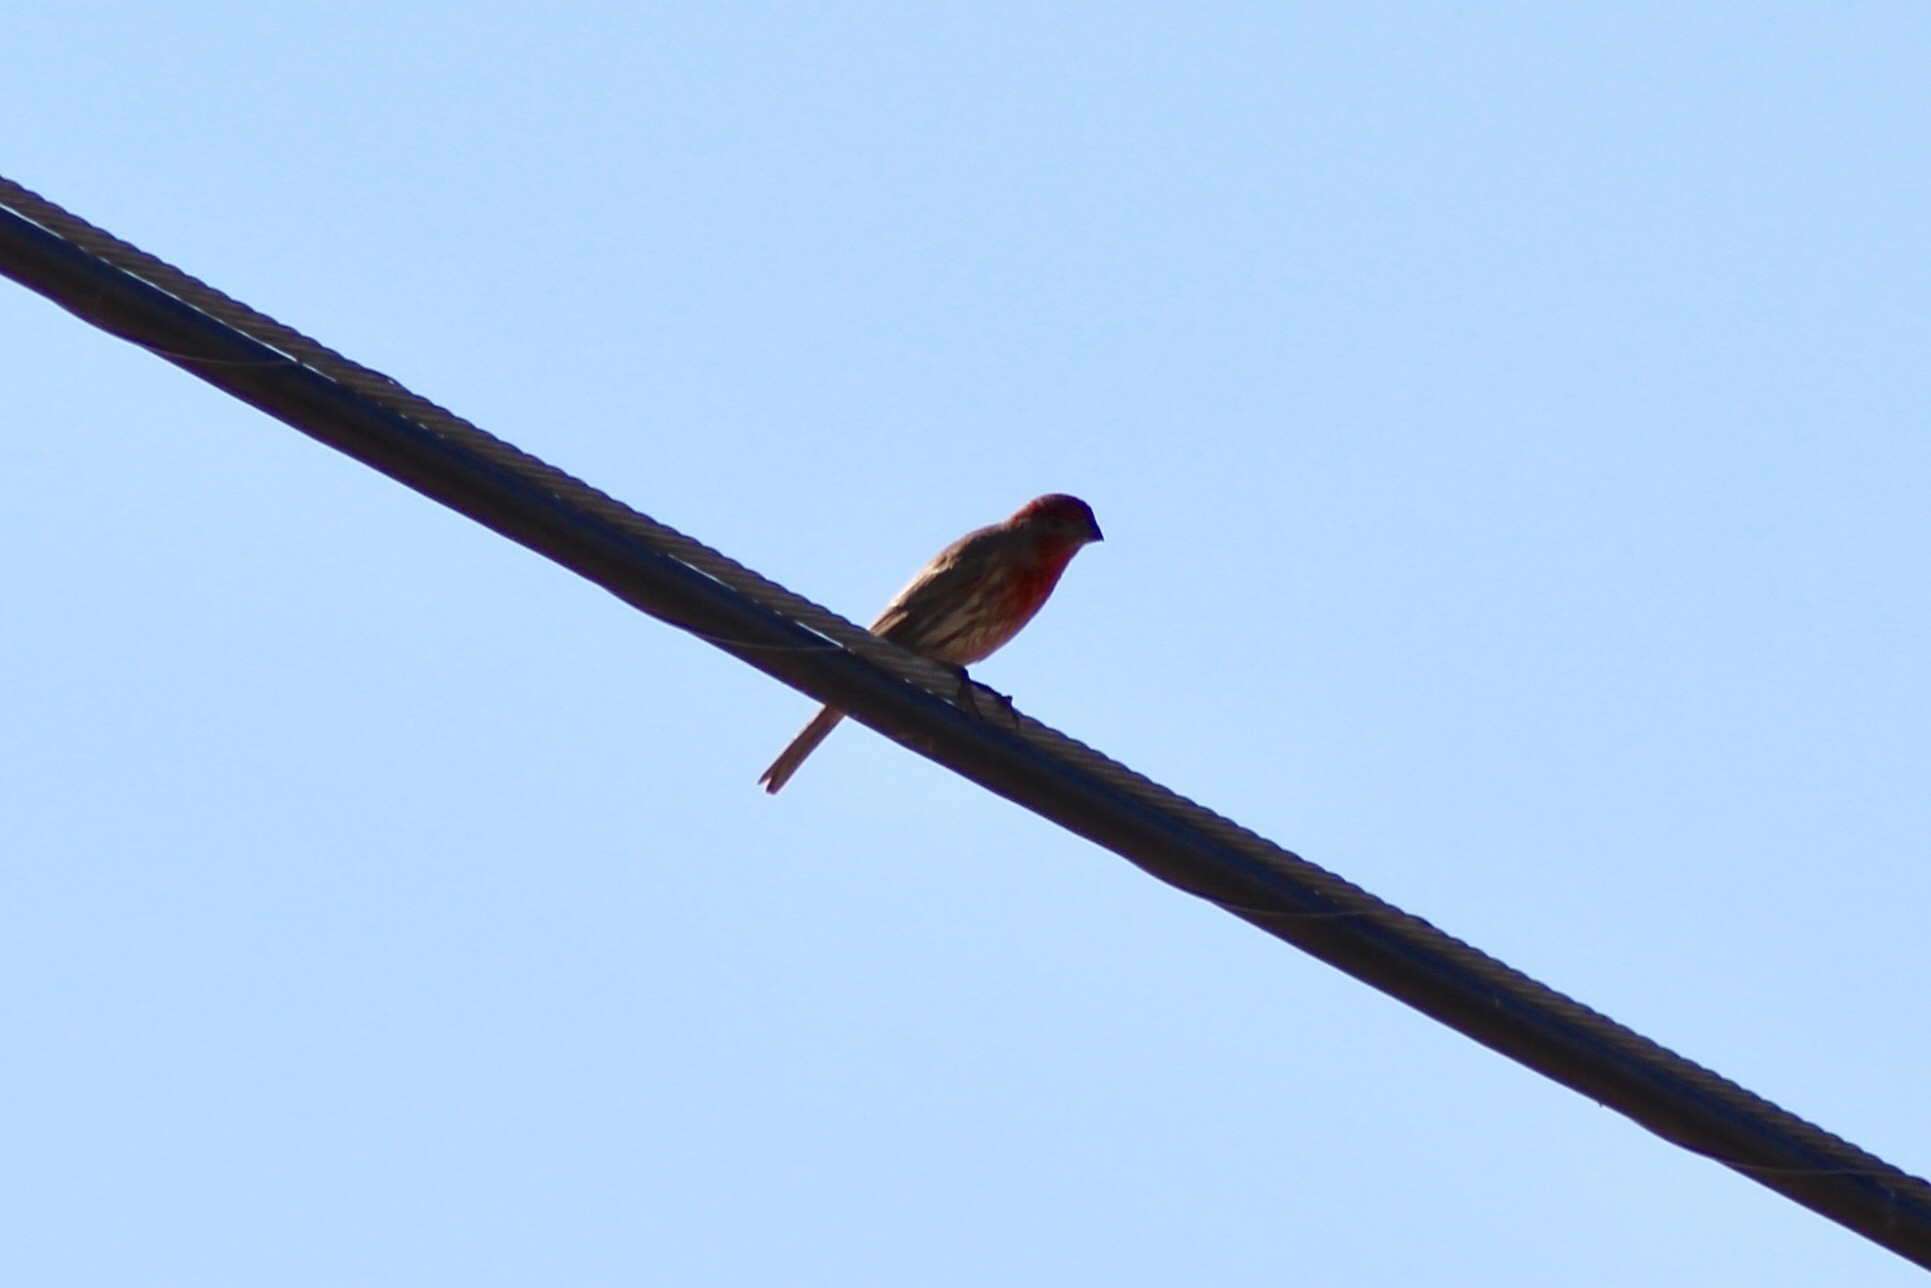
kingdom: Animalia
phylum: Chordata
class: Aves
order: Passeriformes
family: Fringillidae
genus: Haemorhous
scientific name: Haemorhous mexicanus
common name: House finch
